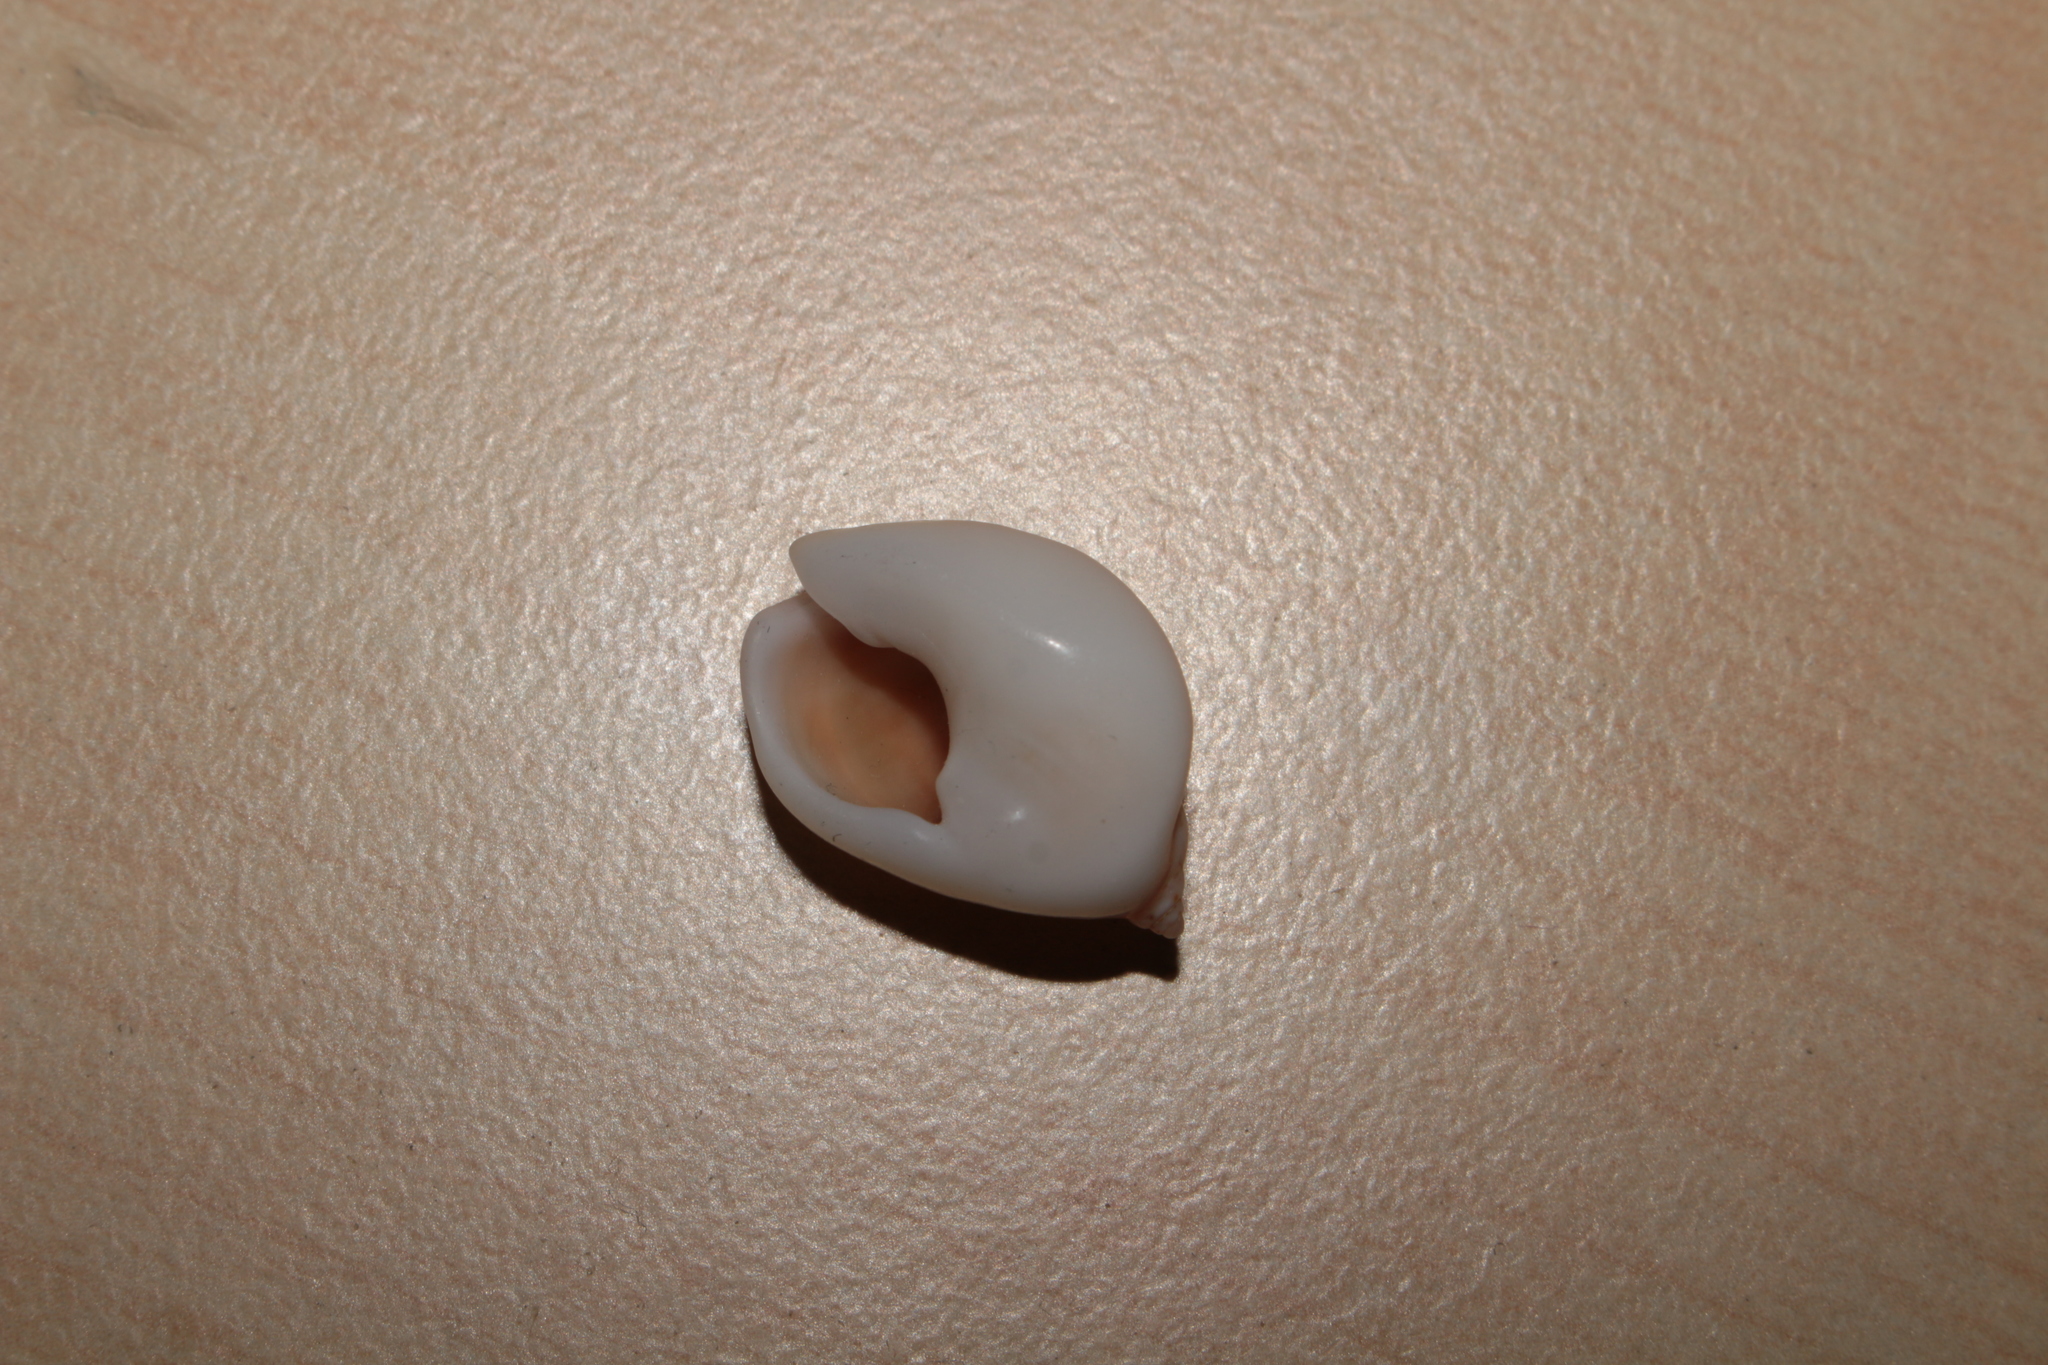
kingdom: Animalia
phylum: Mollusca
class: Gastropoda
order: Neogastropoda
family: Nassariidae
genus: Tritia
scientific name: Tritia gibbosula
